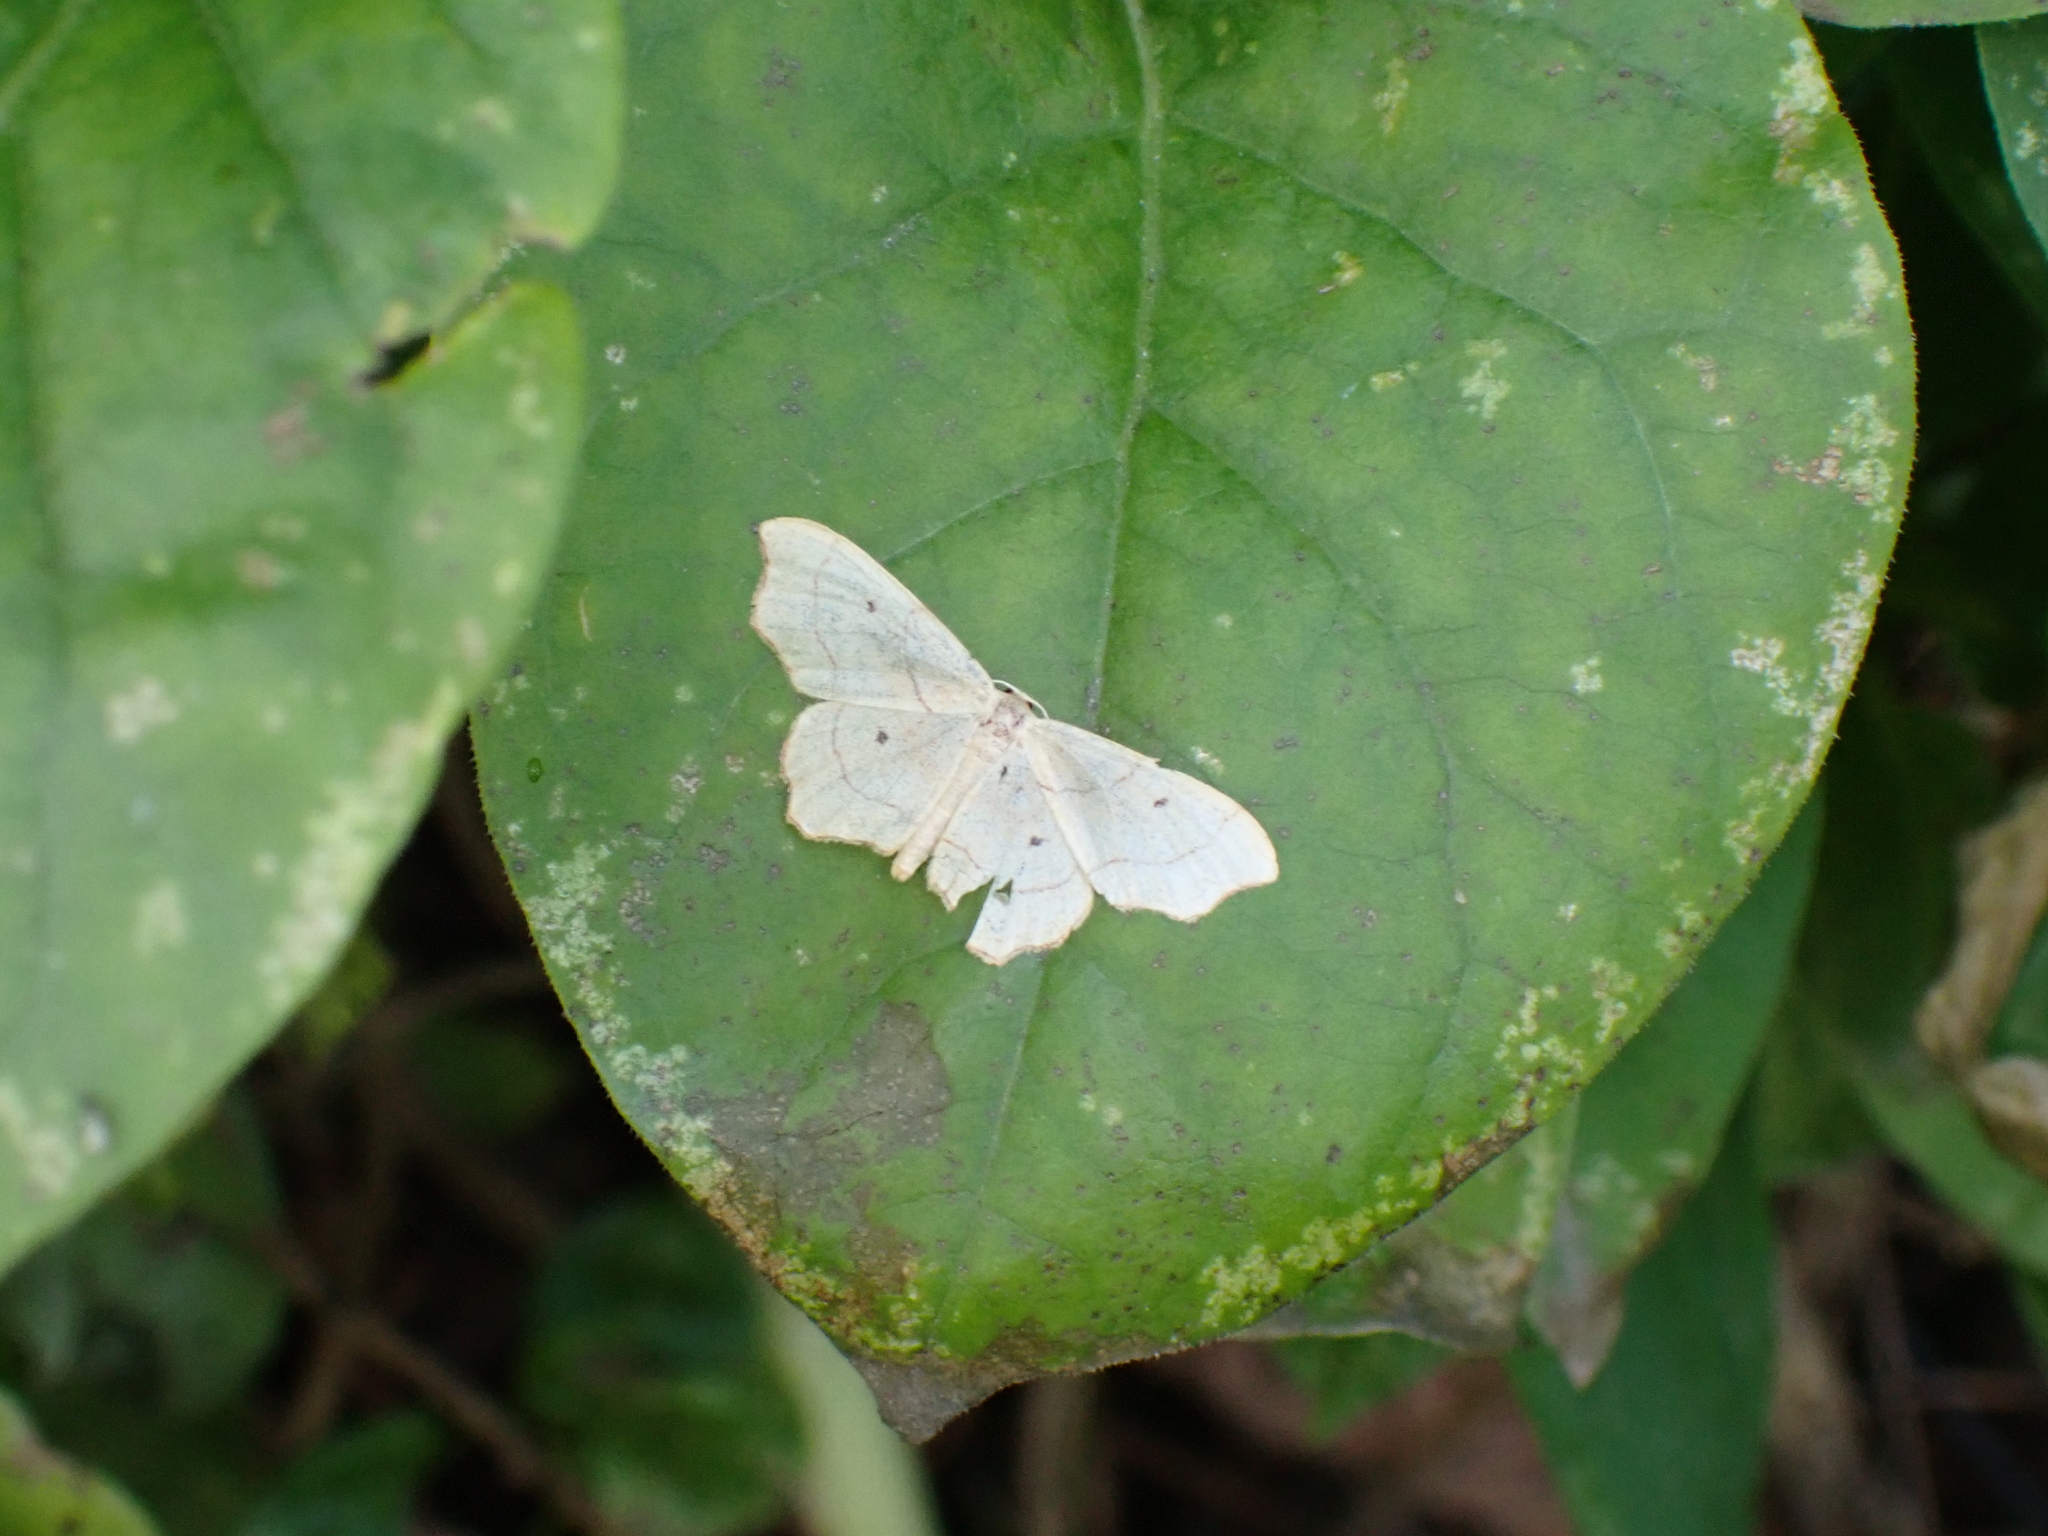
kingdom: Animalia
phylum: Arthropoda
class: Insecta
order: Lepidoptera
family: Geometridae
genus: Idaea
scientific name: Idaea emarginata
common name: Small scallop
